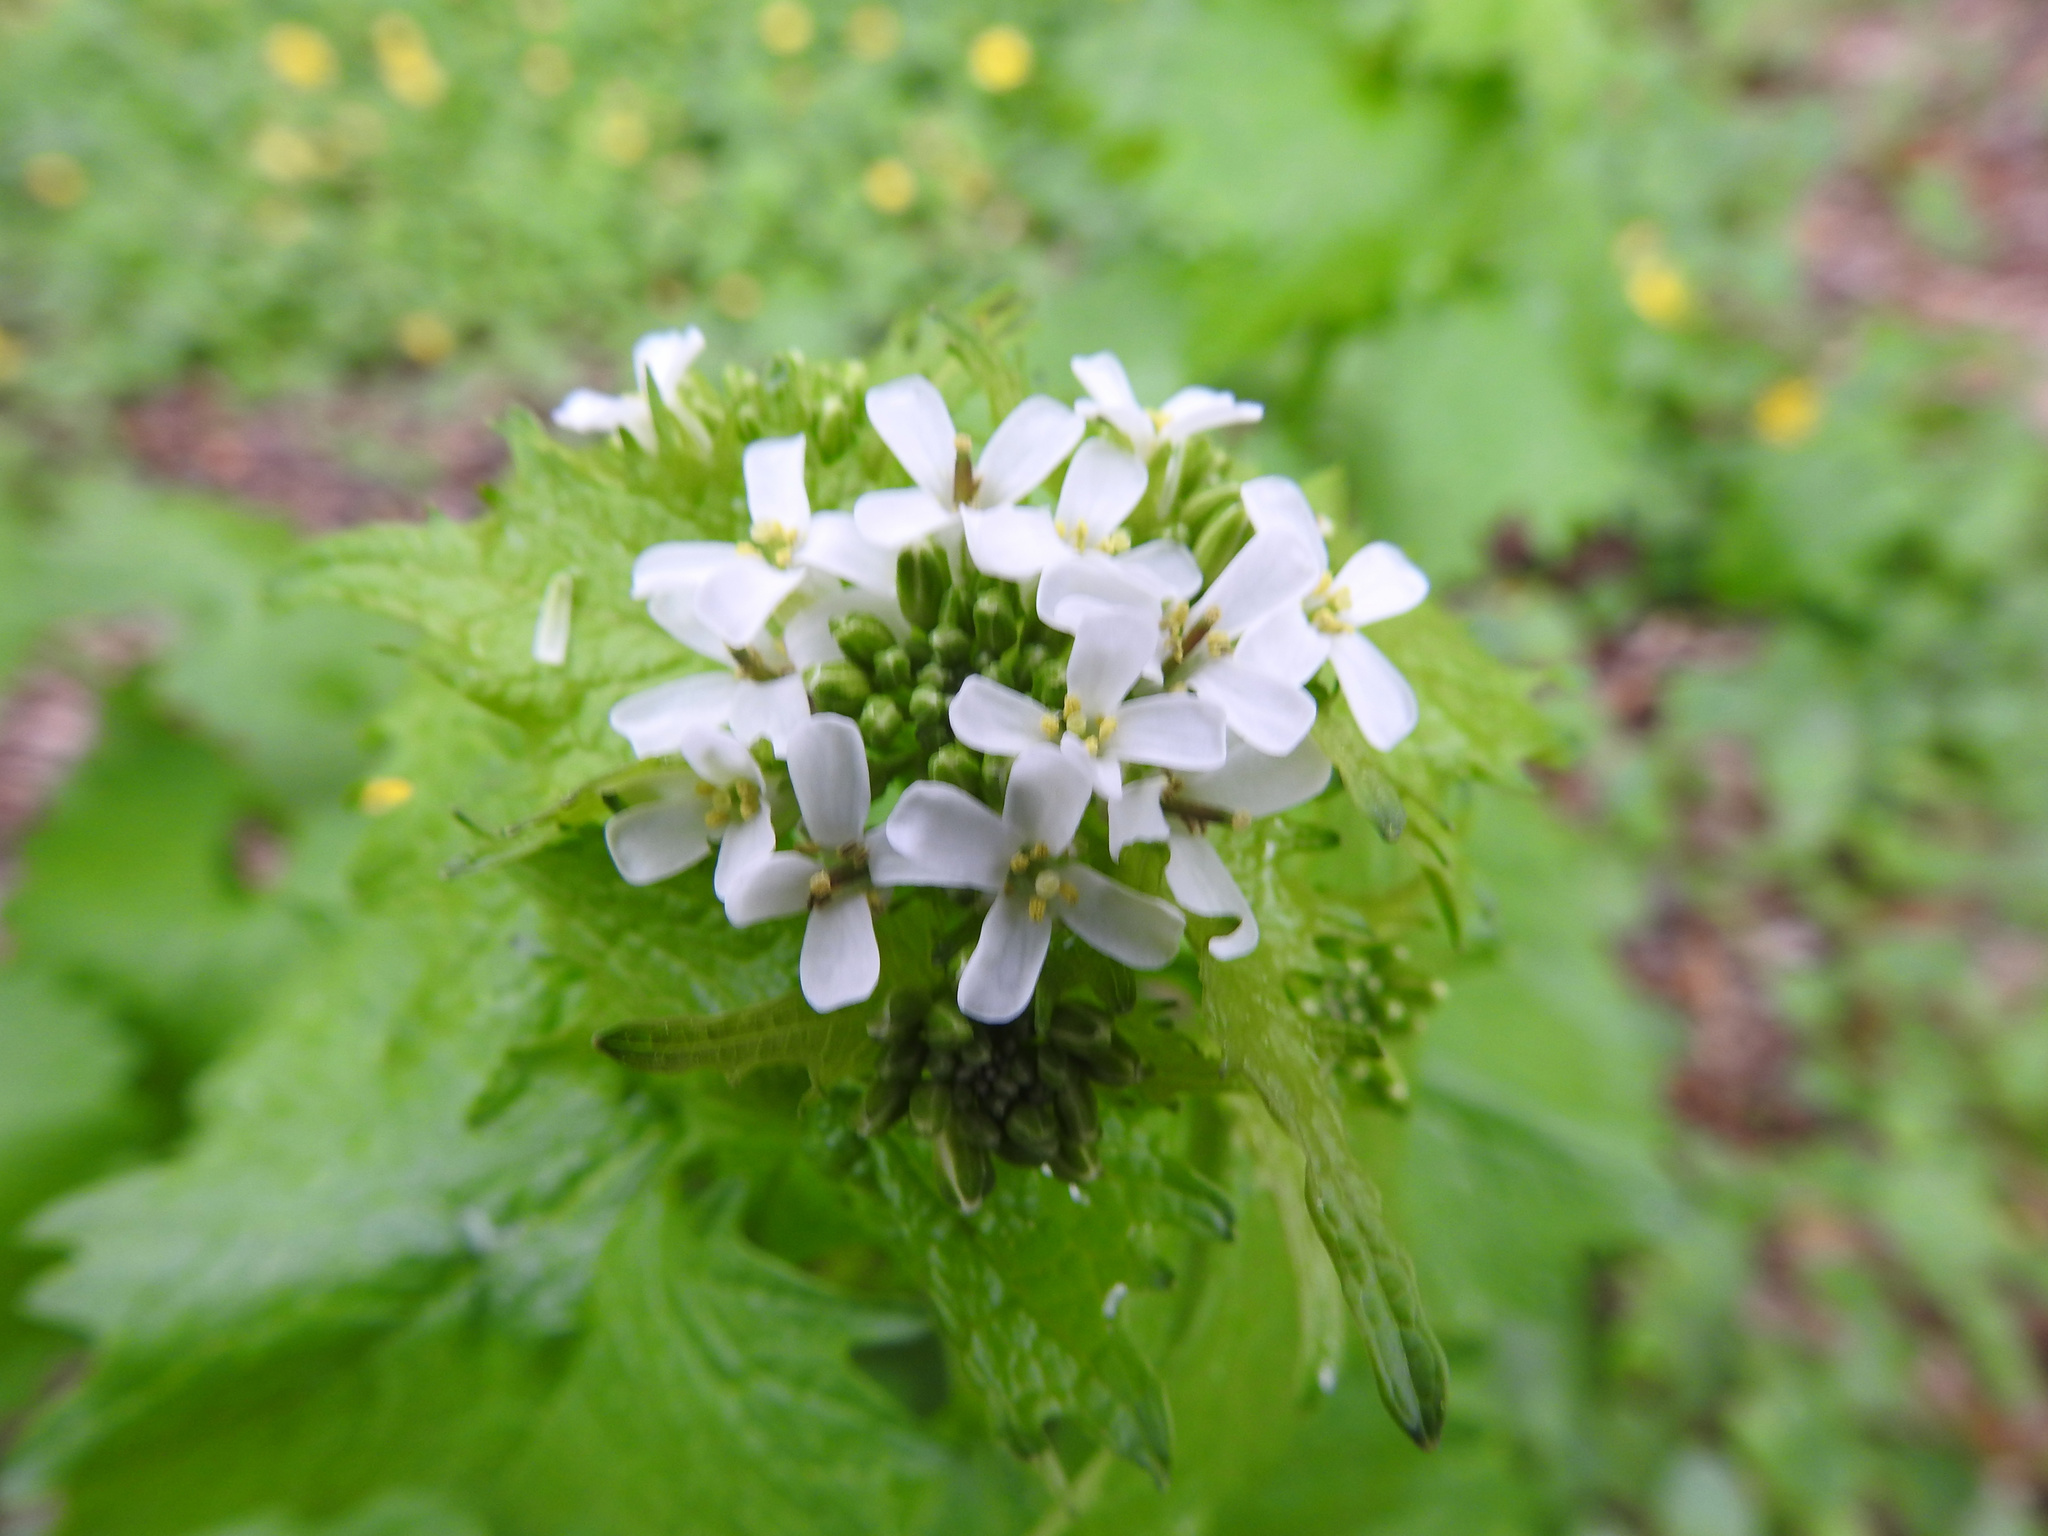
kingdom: Plantae
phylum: Tracheophyta
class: Magnoliopsida
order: Brassicales
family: Brassicaceae
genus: Alliaria
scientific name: Alliaria petiolata
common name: Garlic mustard
